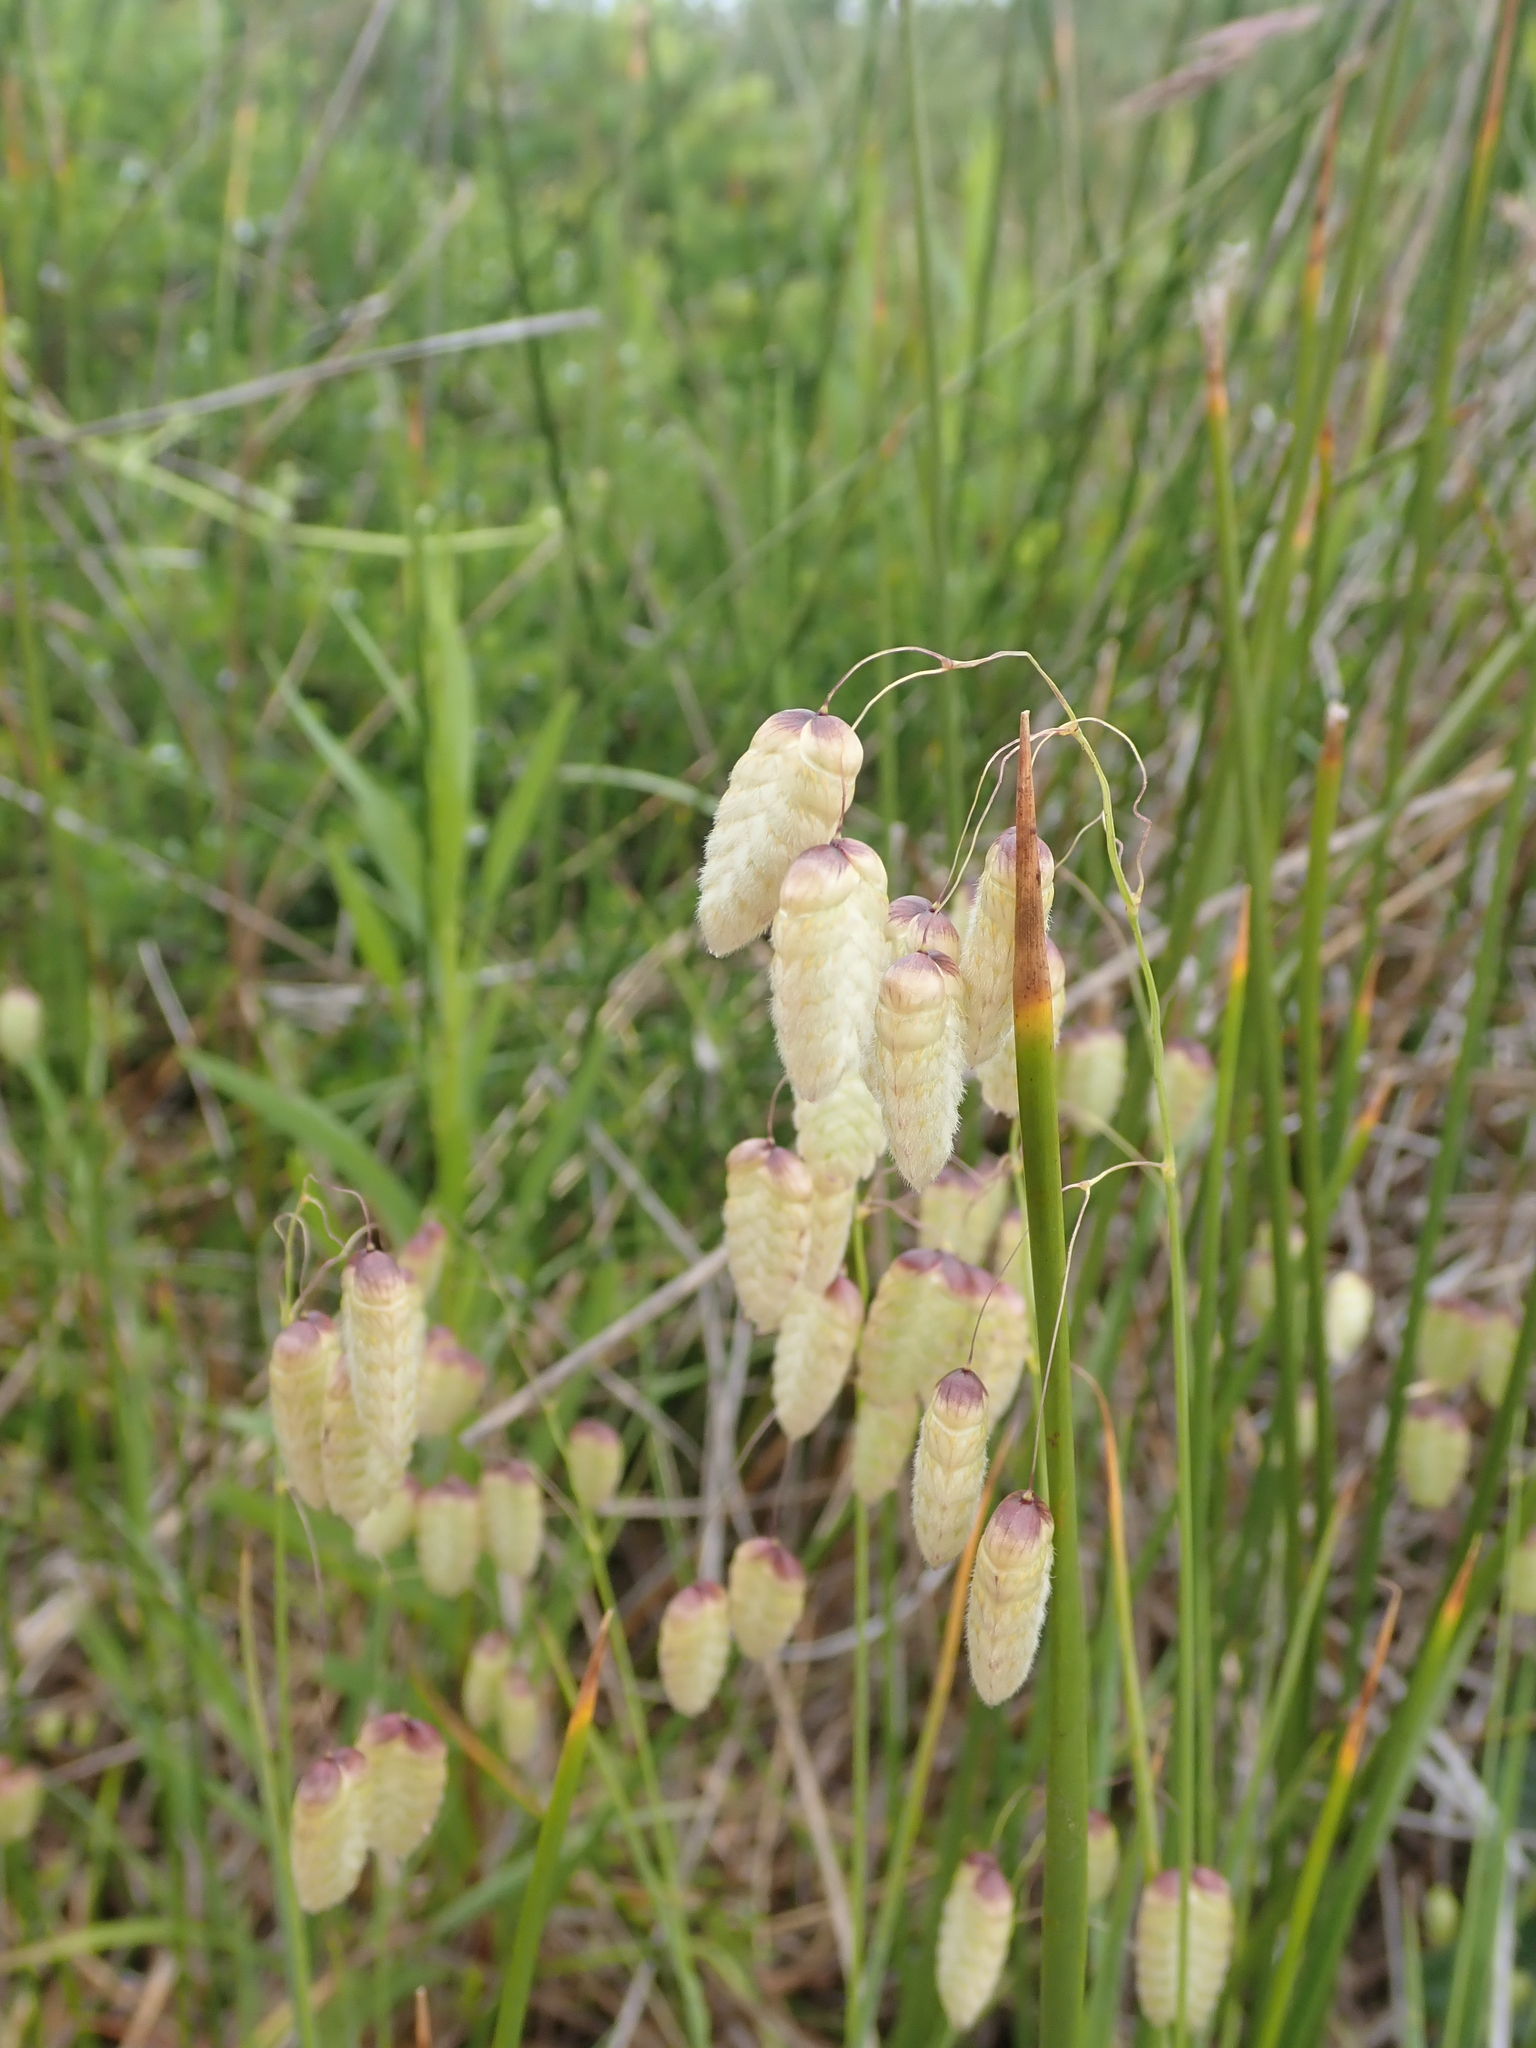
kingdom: Plantae
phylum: Tracheophyta
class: Liliopsida
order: Poales
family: Poaceae
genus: Briza
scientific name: Briza maxima
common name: Big quakinggrass
